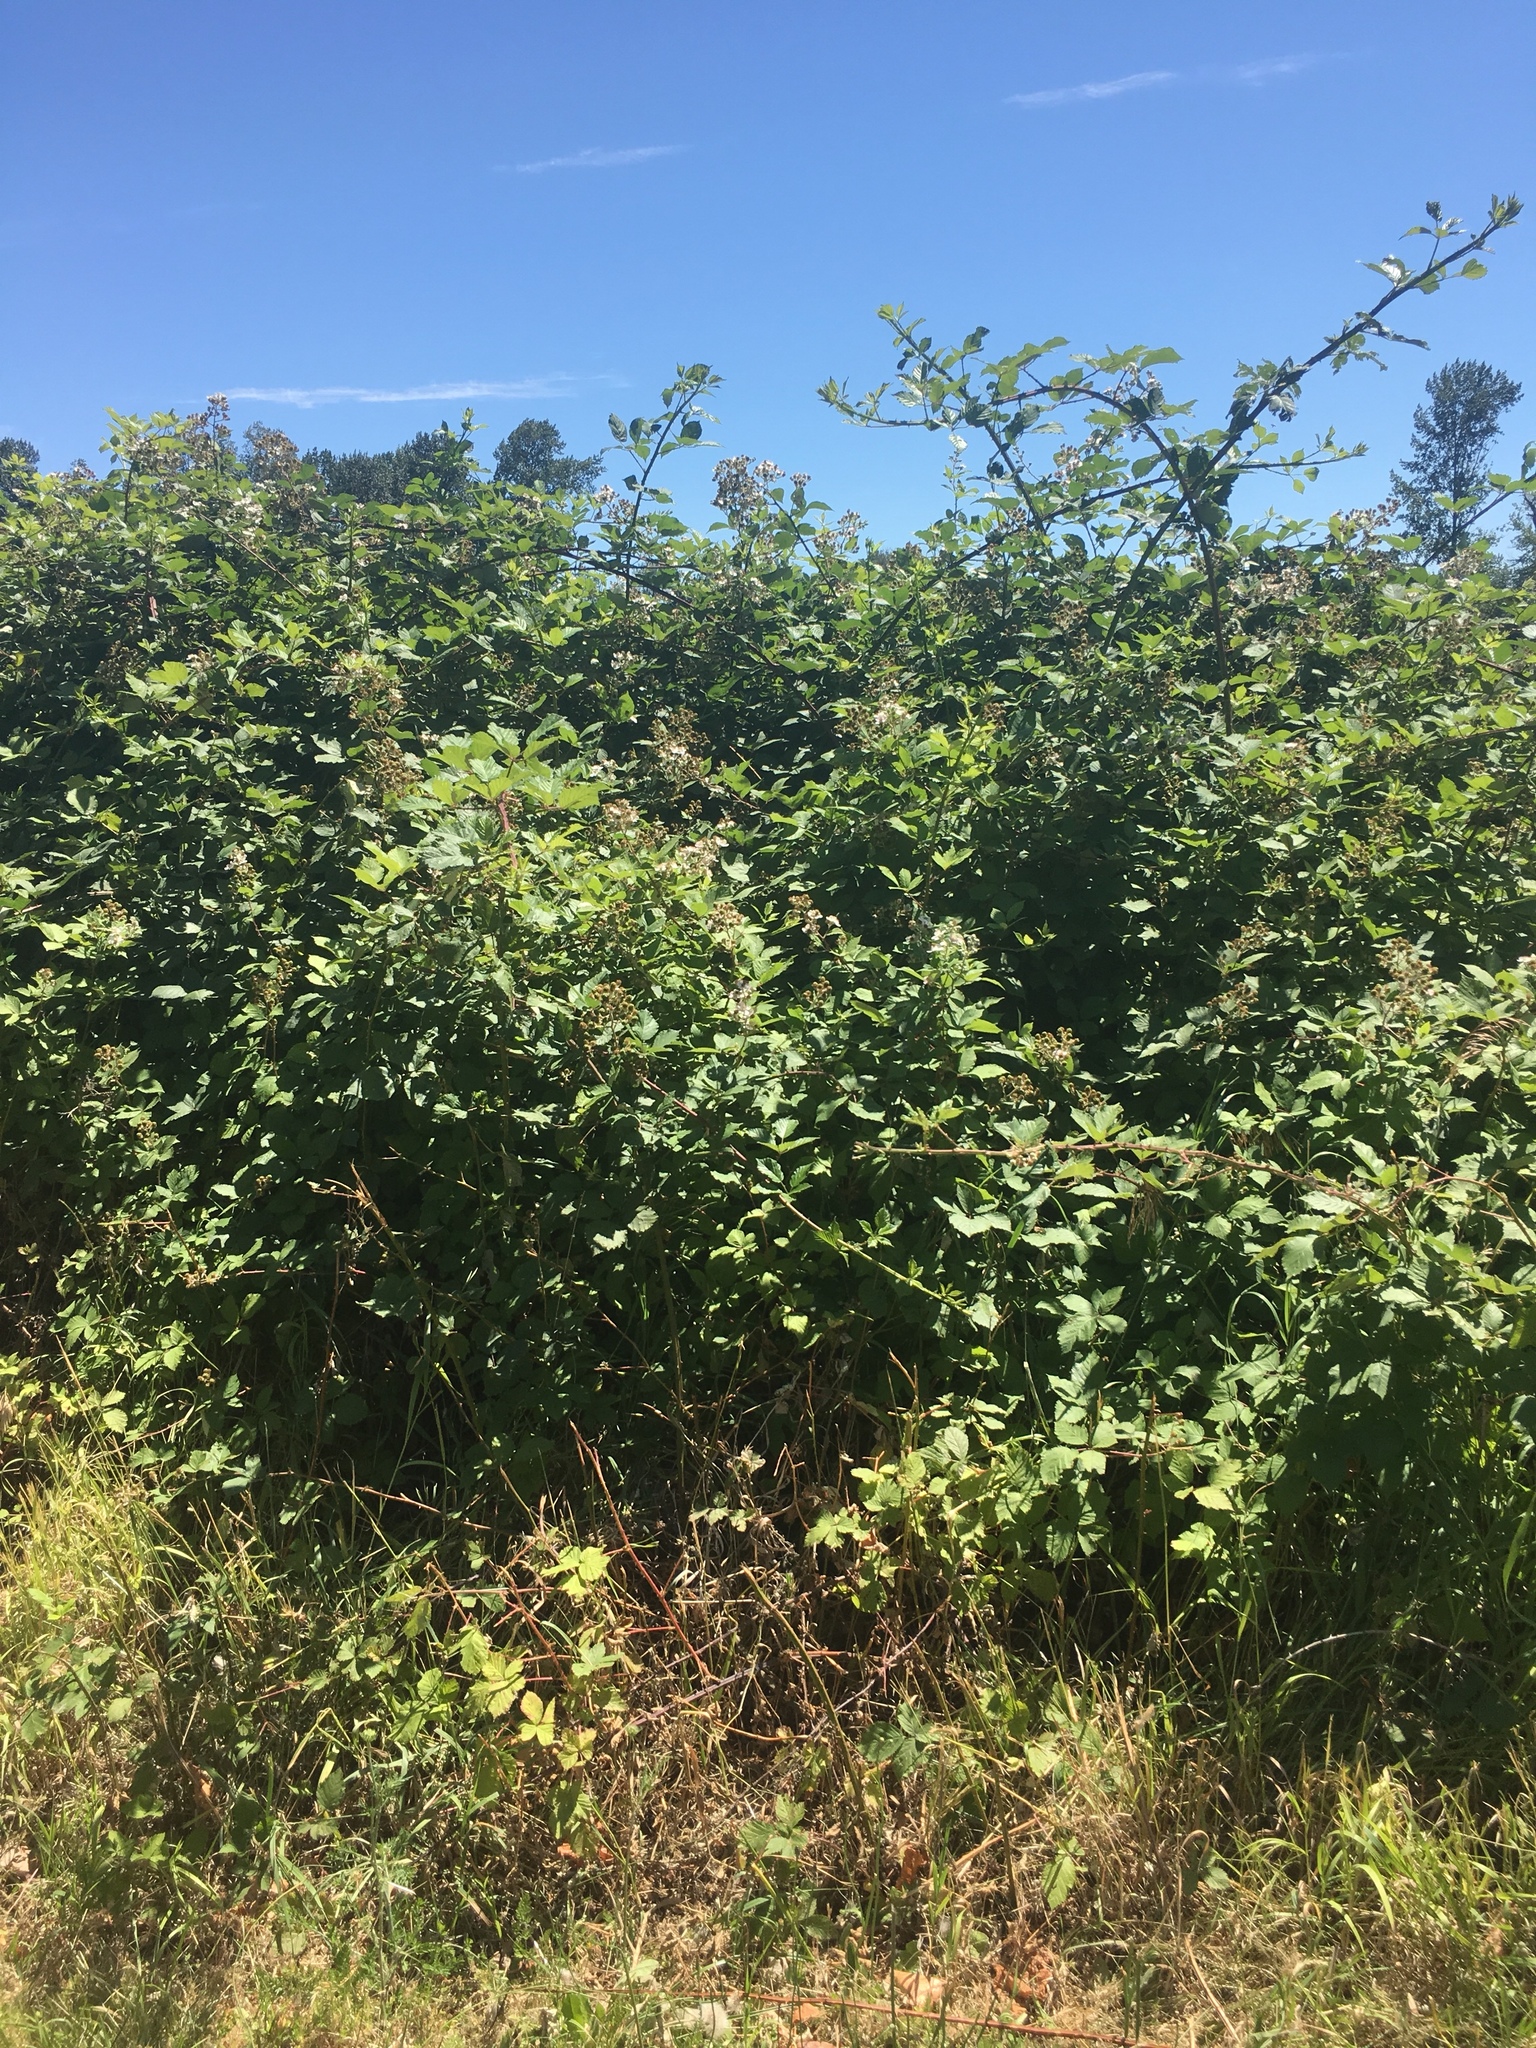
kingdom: Plantae
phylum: Tracheophyta
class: Magnoliopsida
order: Rosales
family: Rosaceae
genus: Rubus
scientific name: Rubus armeniacus
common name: Himalayan blackberry
